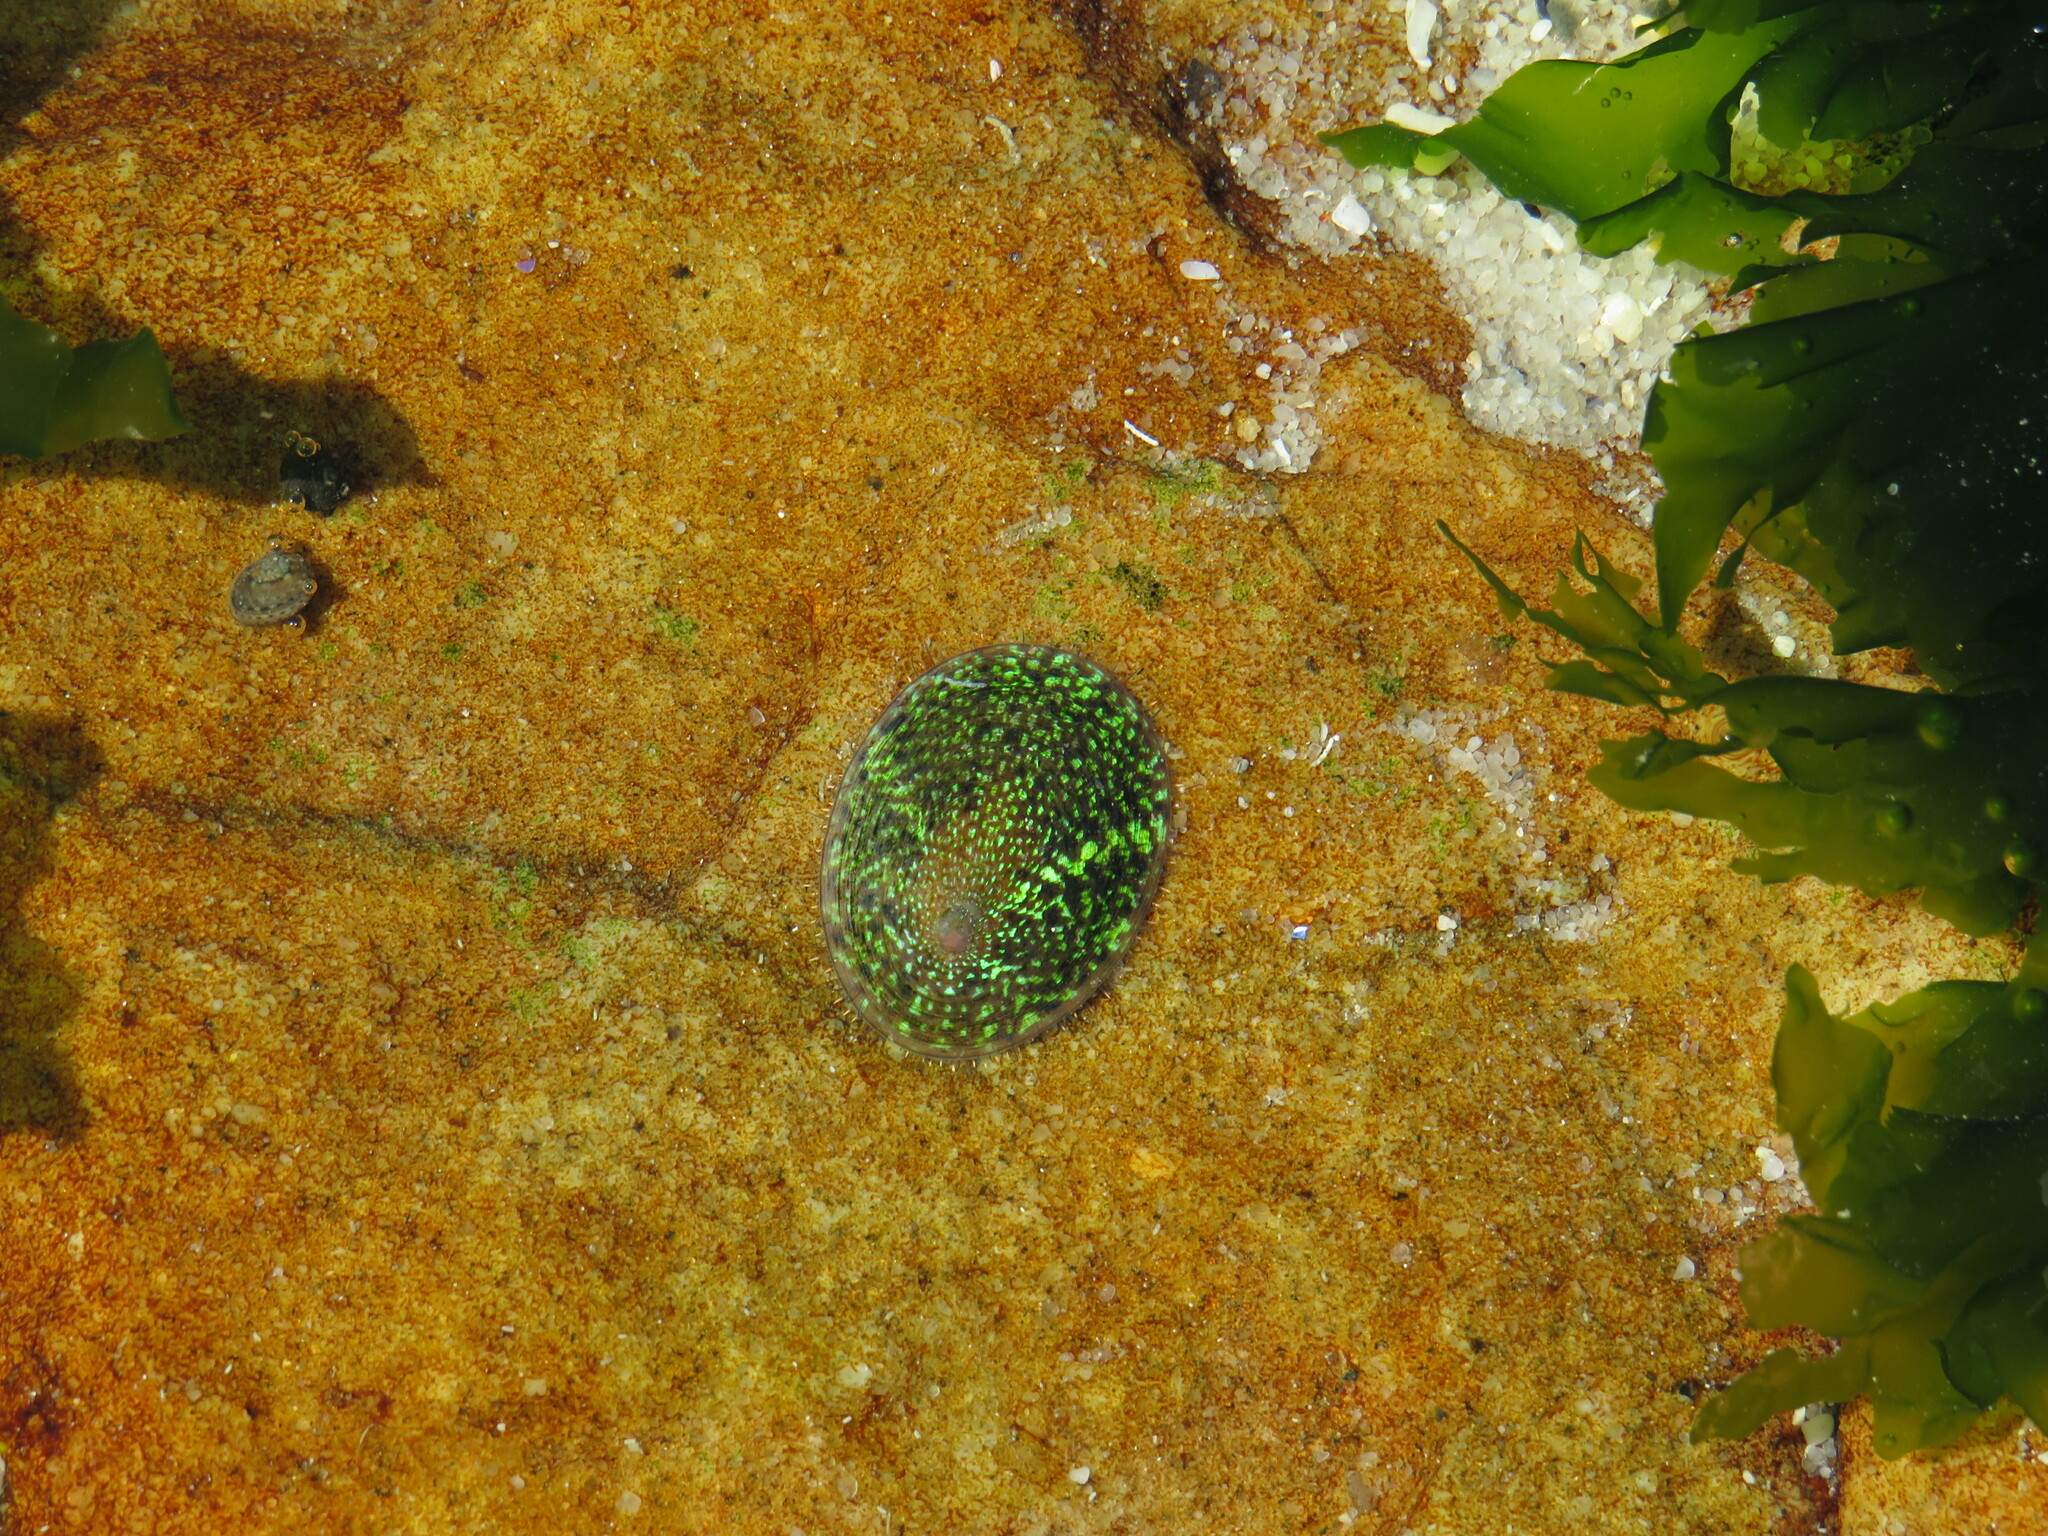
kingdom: Animalia
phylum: Mollusca
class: Gastropoda
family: Patellidae
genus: Helcion
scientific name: Helcion pruinosus
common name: Rayed limpet
